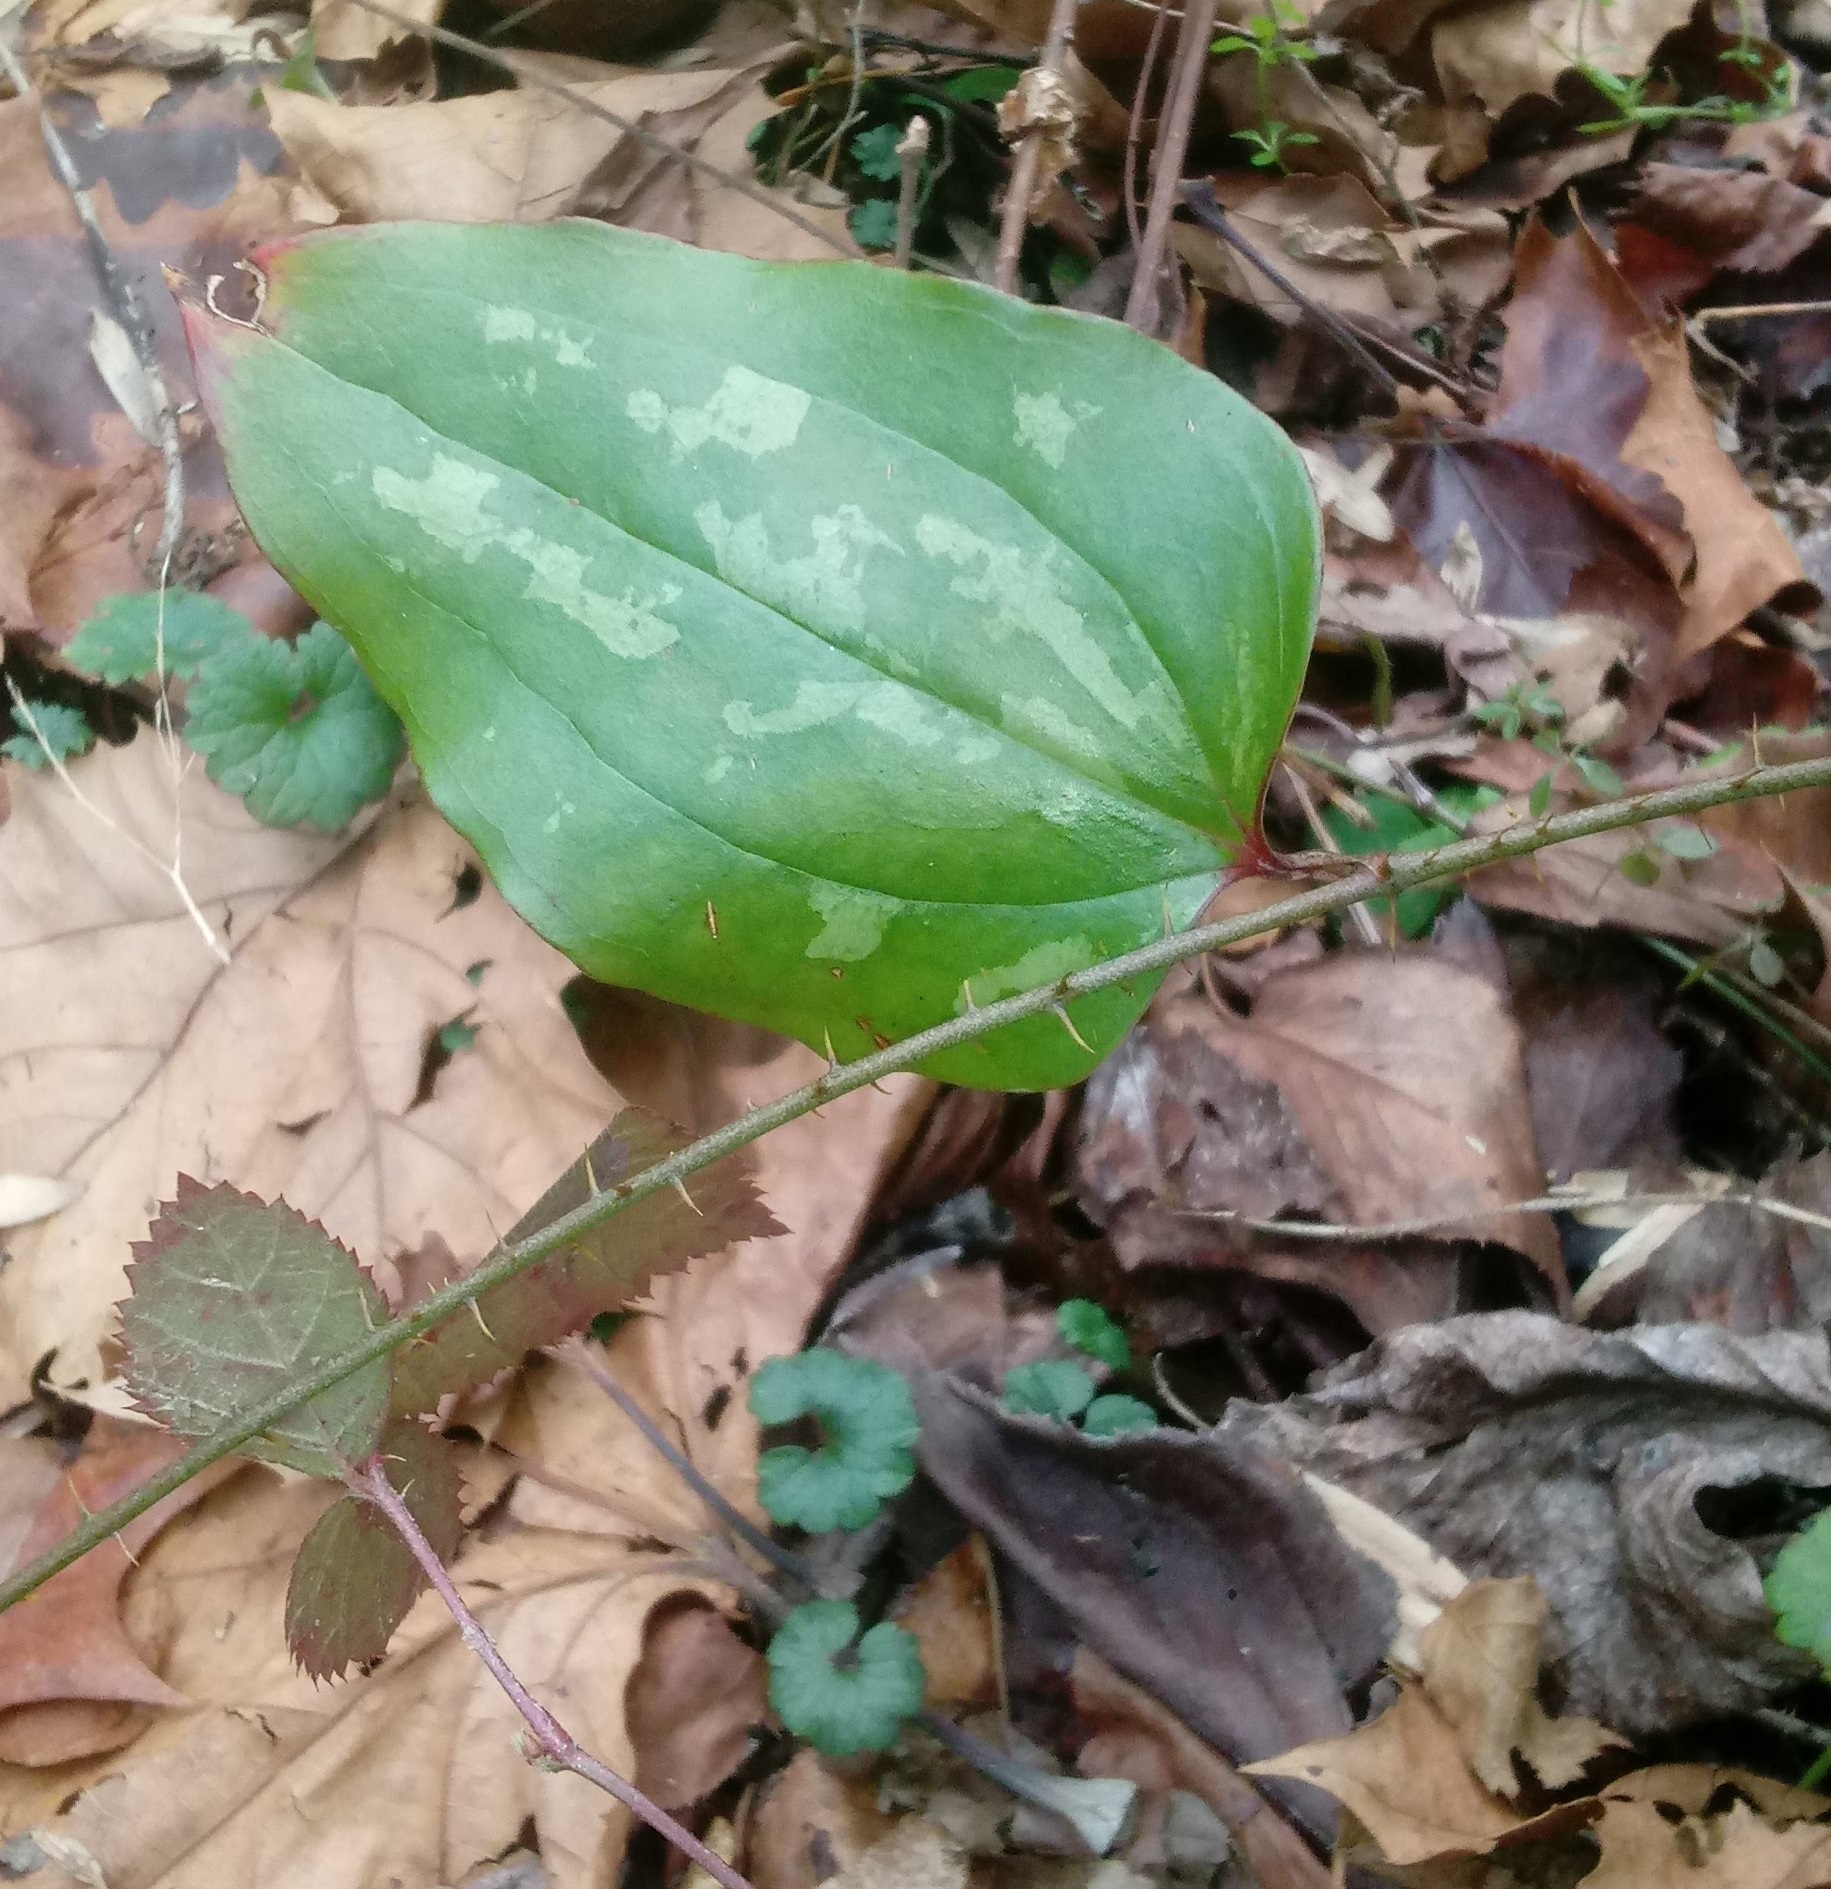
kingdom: Plantae
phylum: Tracheophyta
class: Liliopsida
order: Liliales
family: Smilacaceae
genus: Smilax
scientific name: Smilax glauca
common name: Cat greenbrier
